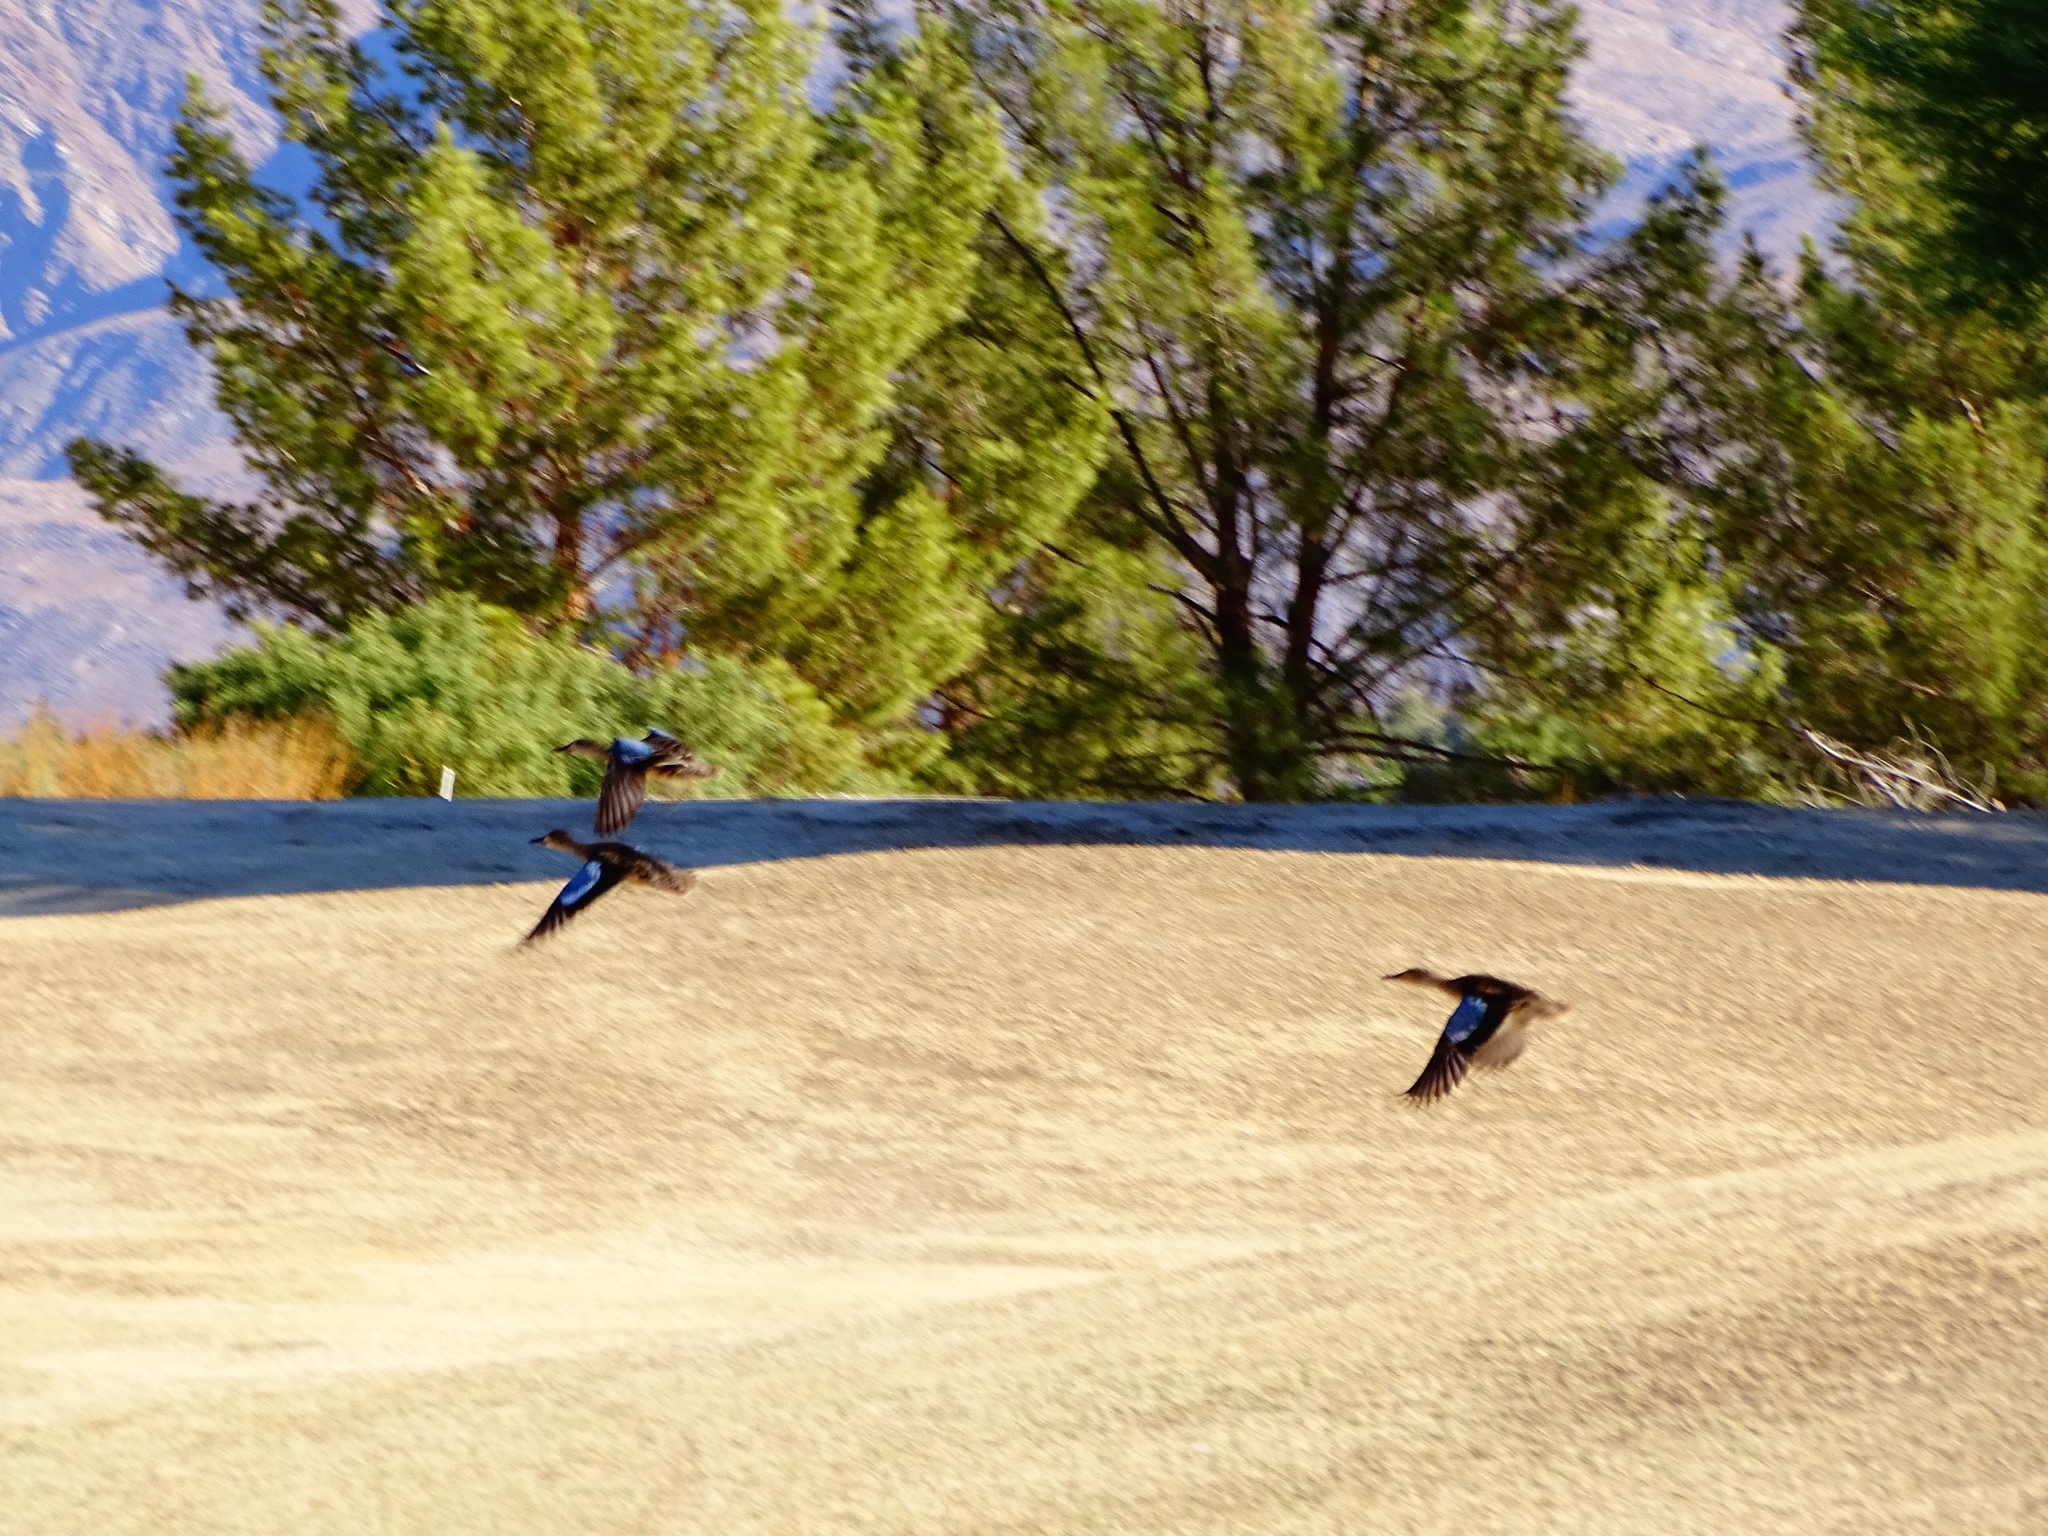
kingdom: Animalia
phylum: Chordata
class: Aves
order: Anseriformes
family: Anatidae
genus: Spatula
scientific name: Spatula cyanoptera
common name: Cinnamon teal
